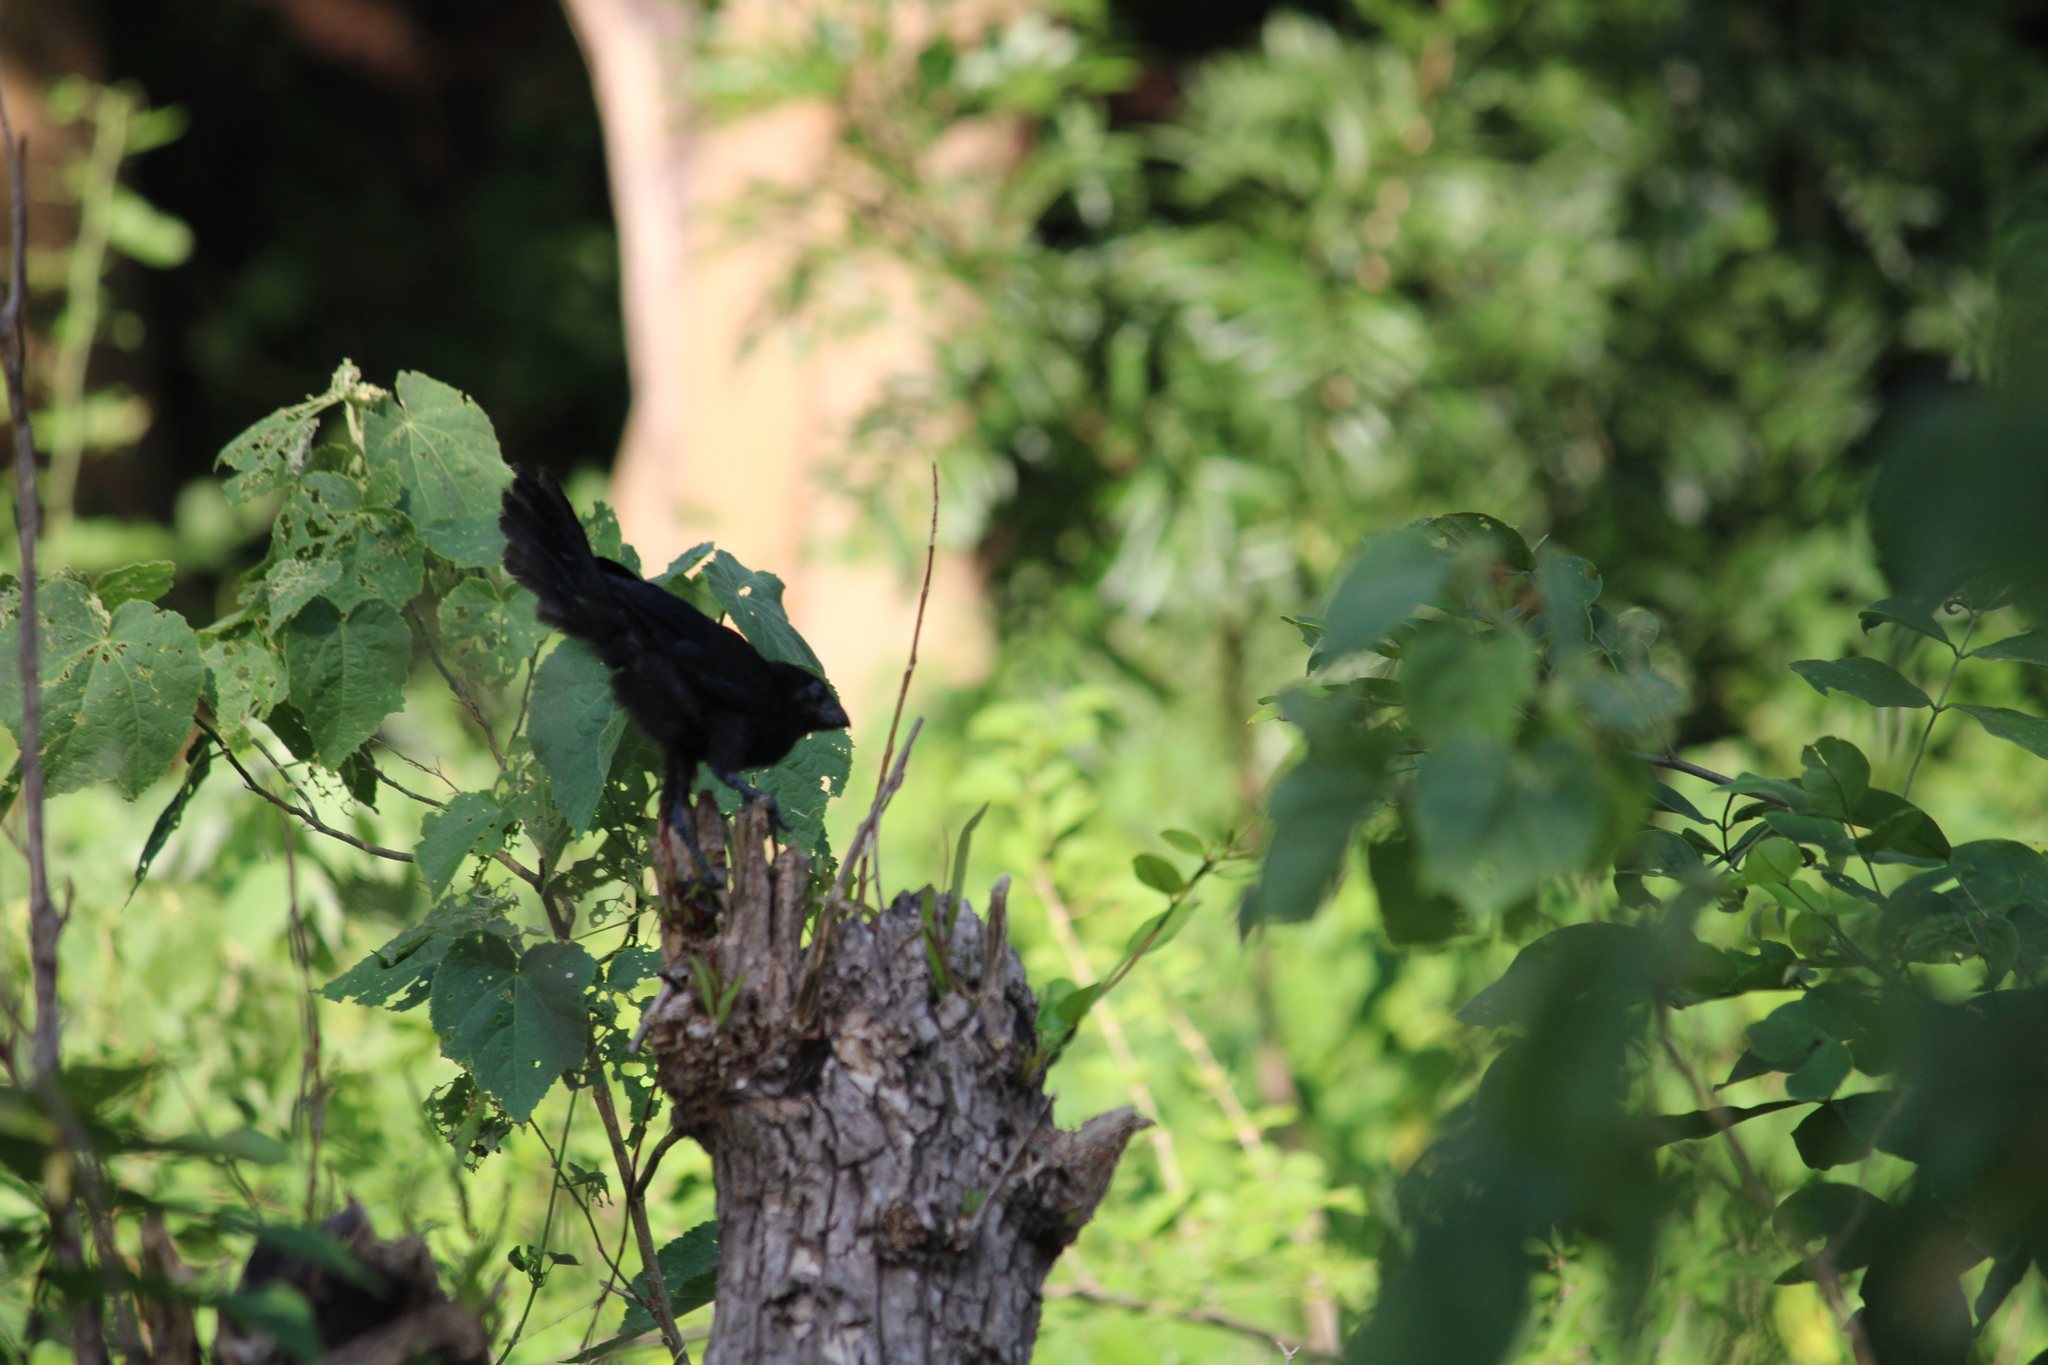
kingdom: Animalia
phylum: Chordata
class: Aves
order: Cuculiformes
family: Cuculidae
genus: Crotophaga
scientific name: Crotophaga sulcirostris
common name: Groove-billed ani
